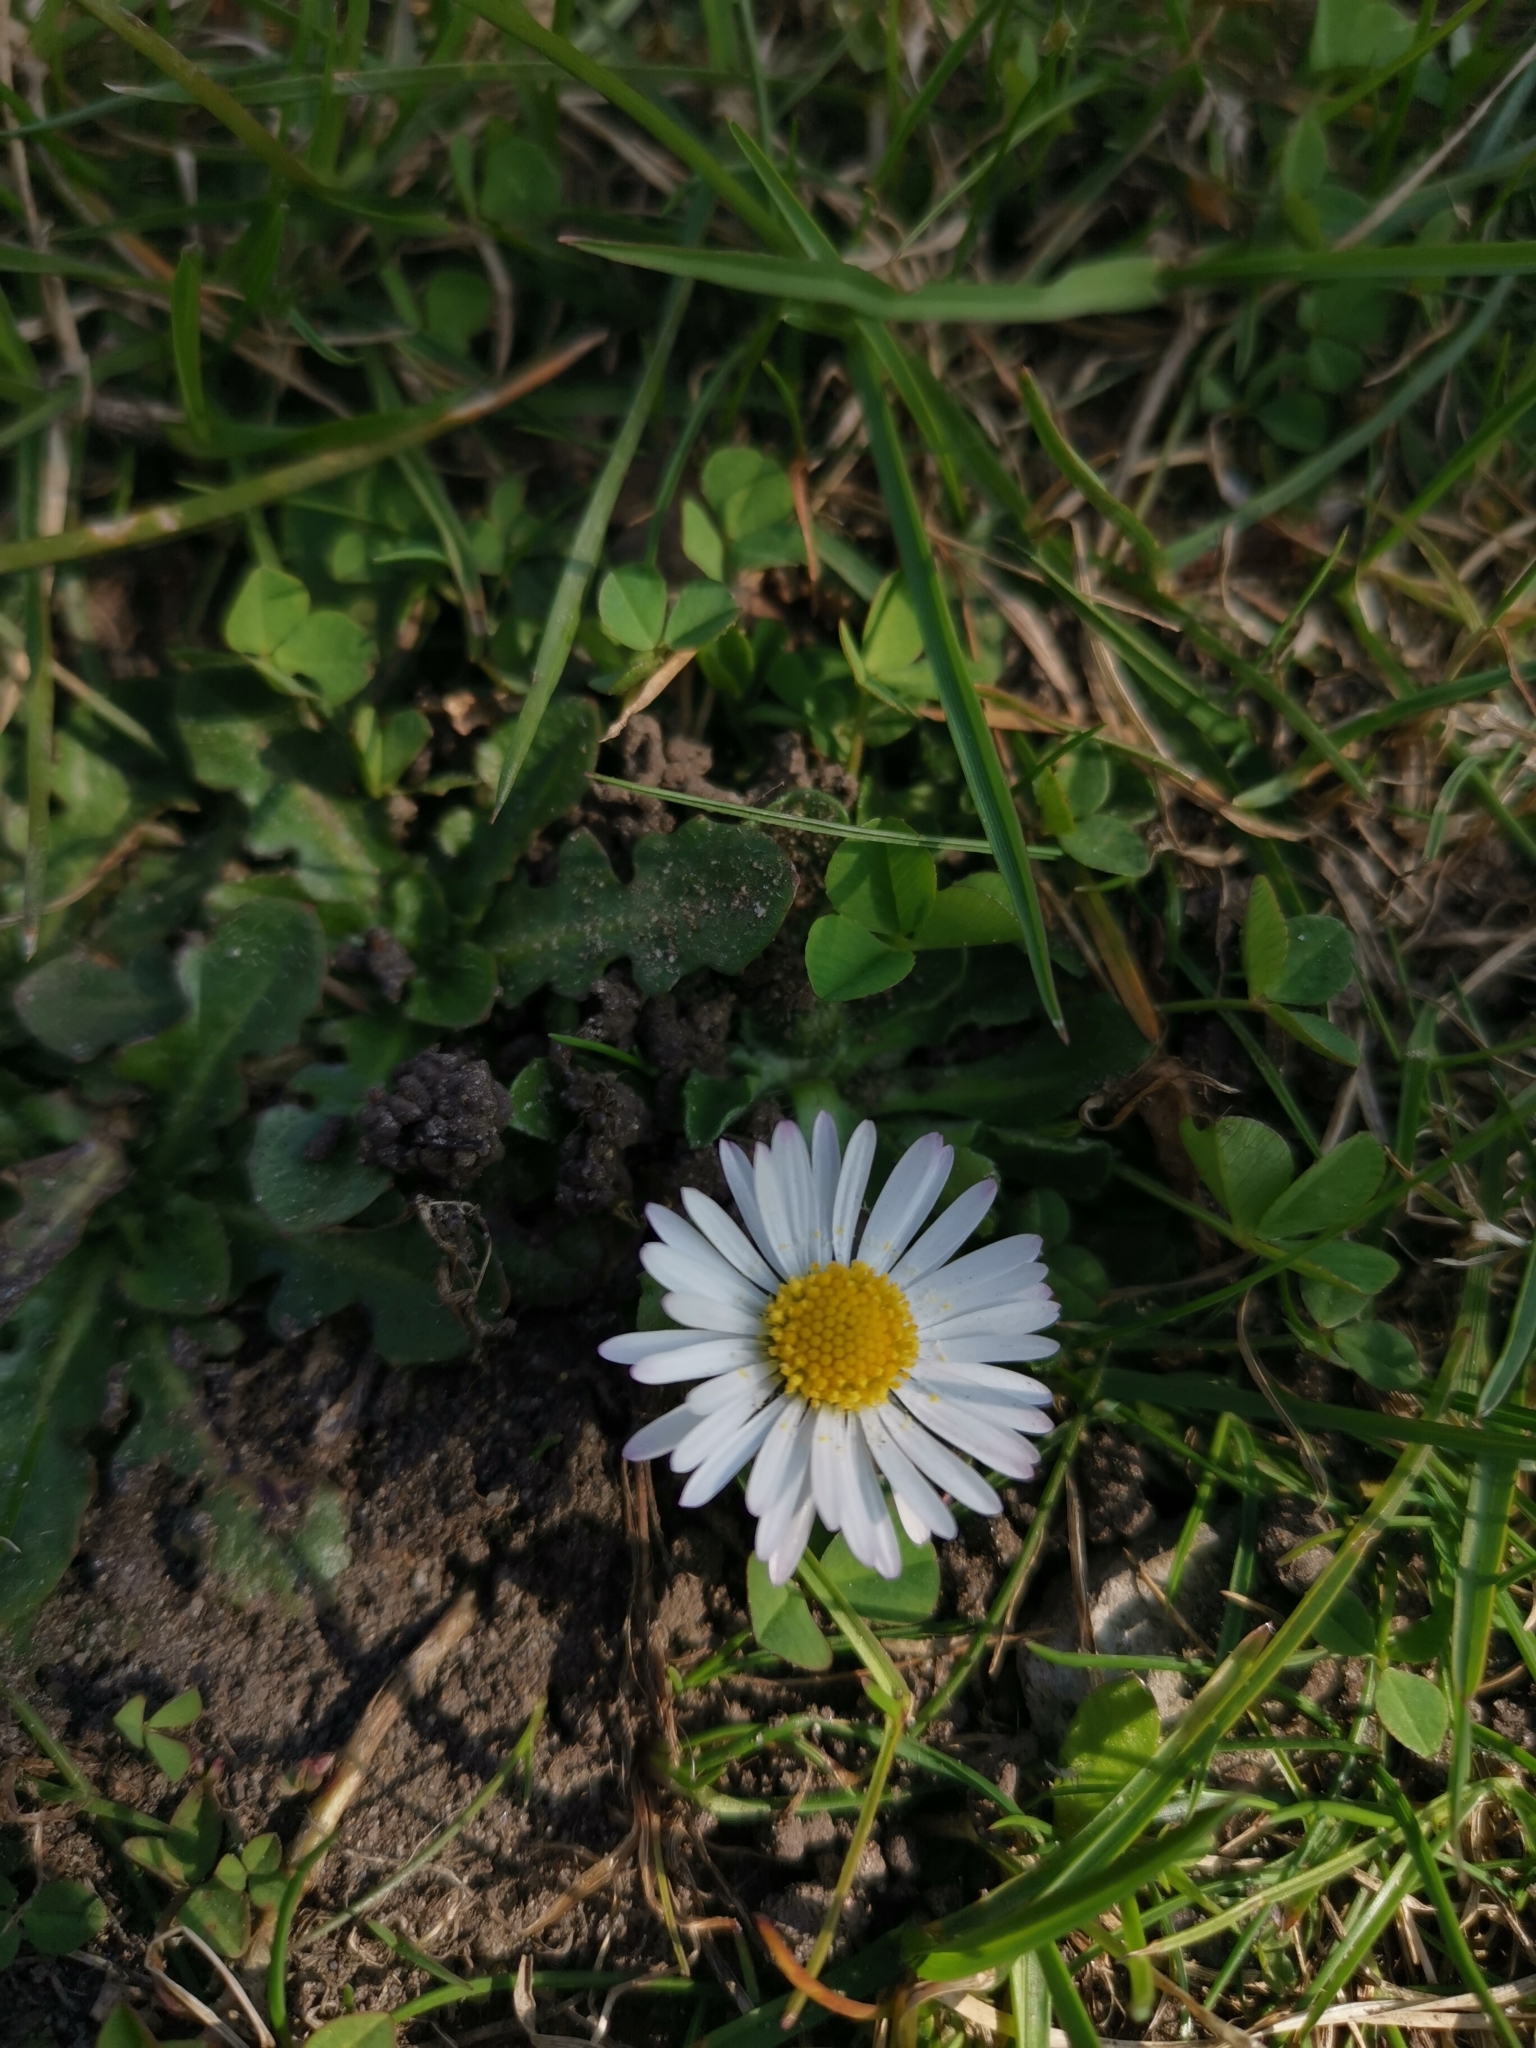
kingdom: Plantae
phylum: Tracheophyta
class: Magnoliopsida
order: Asterales
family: Asteraceae
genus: Bellis
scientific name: Bellis perennis
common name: Lawndaisy
